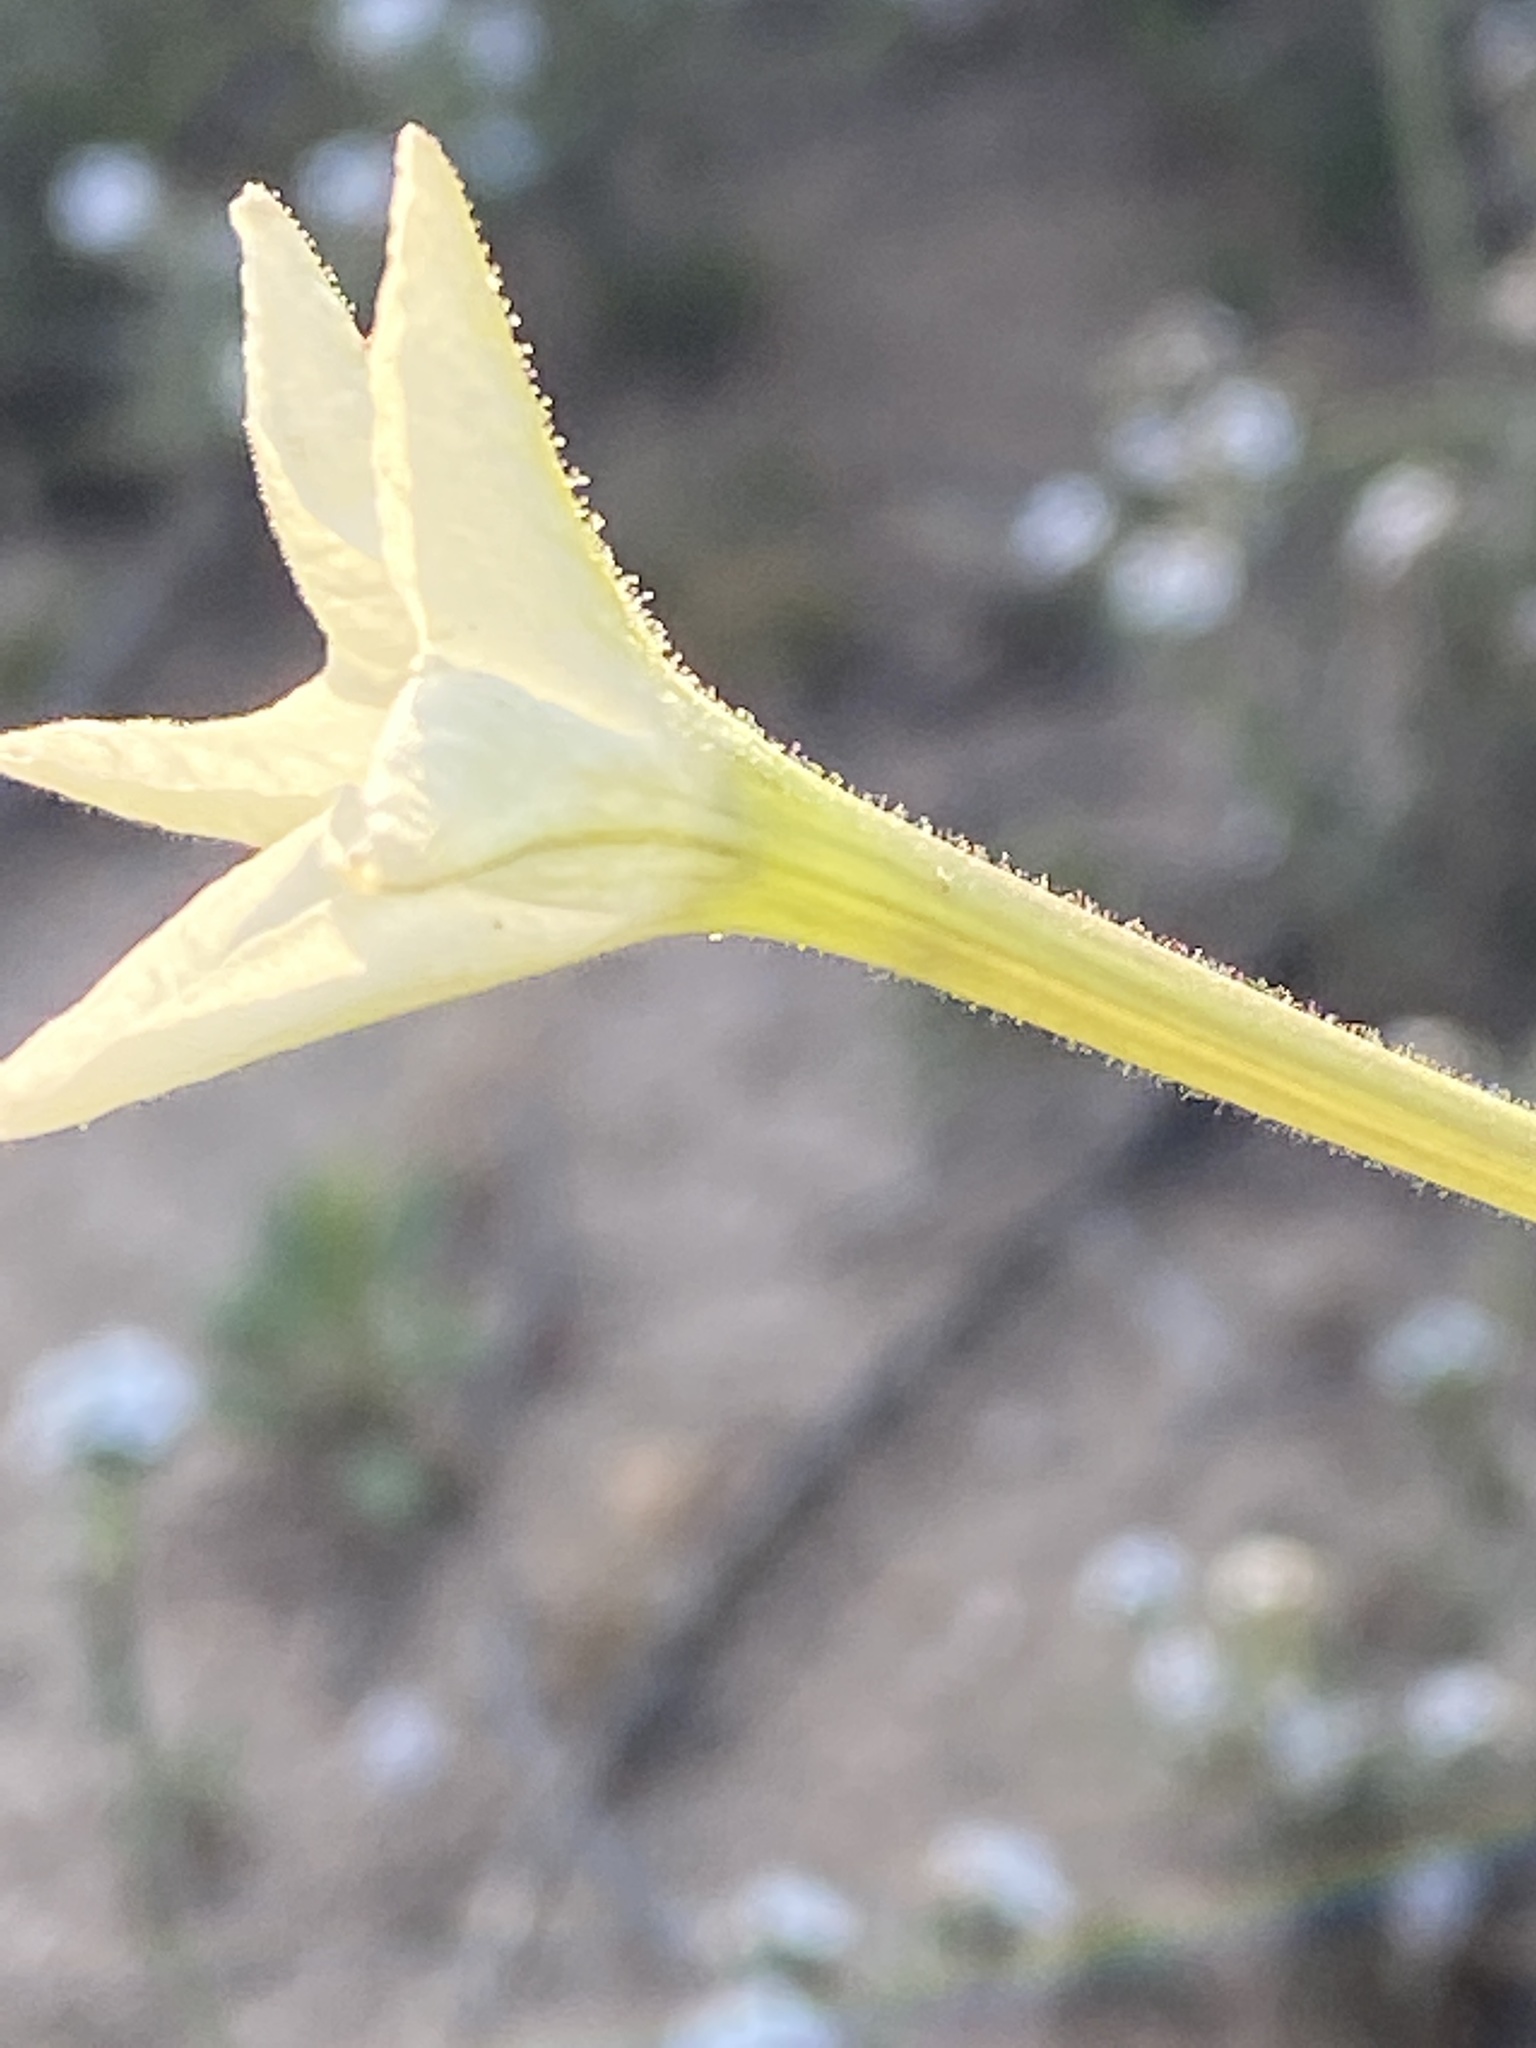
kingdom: Plantae
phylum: Tracheophyta
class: Magnoliopsida
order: Solanales
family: Solanaceae
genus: Nicotiana
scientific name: Nicotiana quadrivalvis
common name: Indian tobacco
